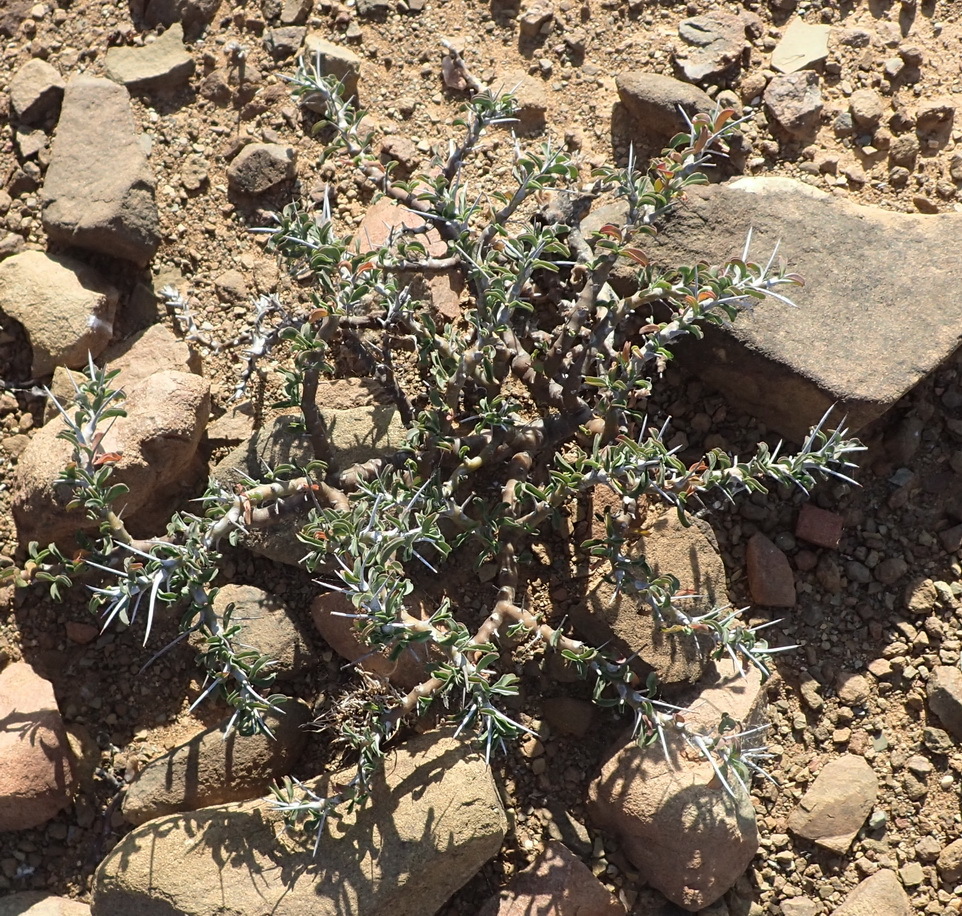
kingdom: Plantae
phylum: Tracheophyta
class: Magnoliopsida
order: Geraniales
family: Geraniaceae
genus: Monsonia
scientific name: Monsonia camdeboensis
